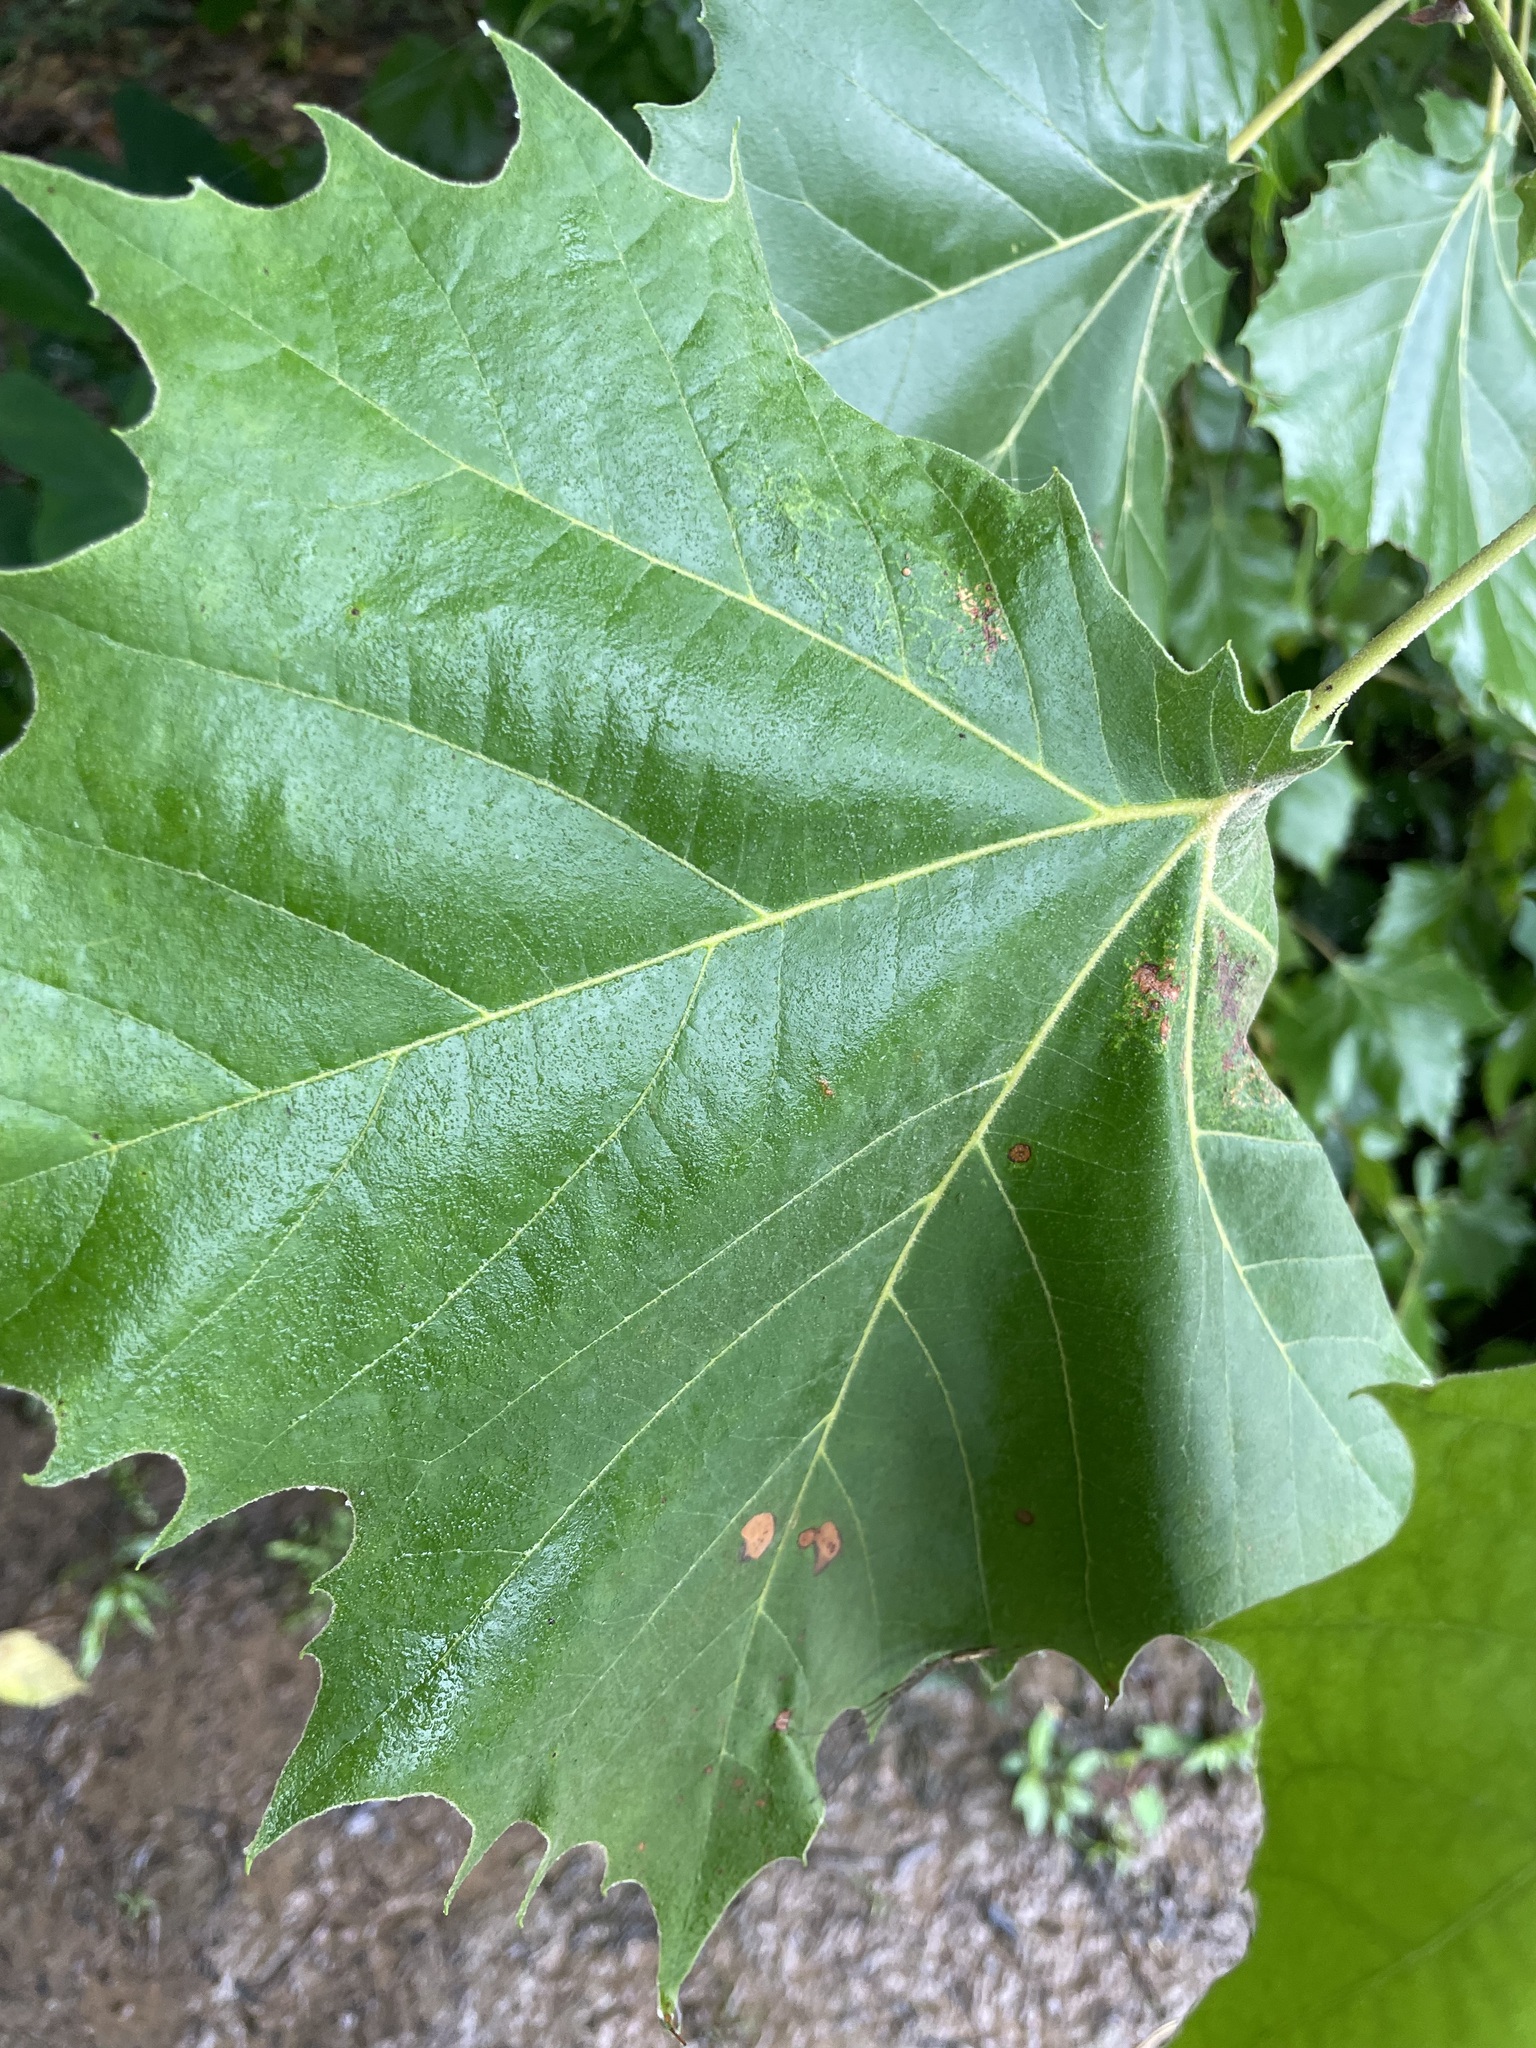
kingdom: Plantae
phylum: Tracheophyta
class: Magnoliopsida
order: Proteales
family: Platanaceae
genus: Platanus
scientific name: Platanus occidentalis
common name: American sycamore
